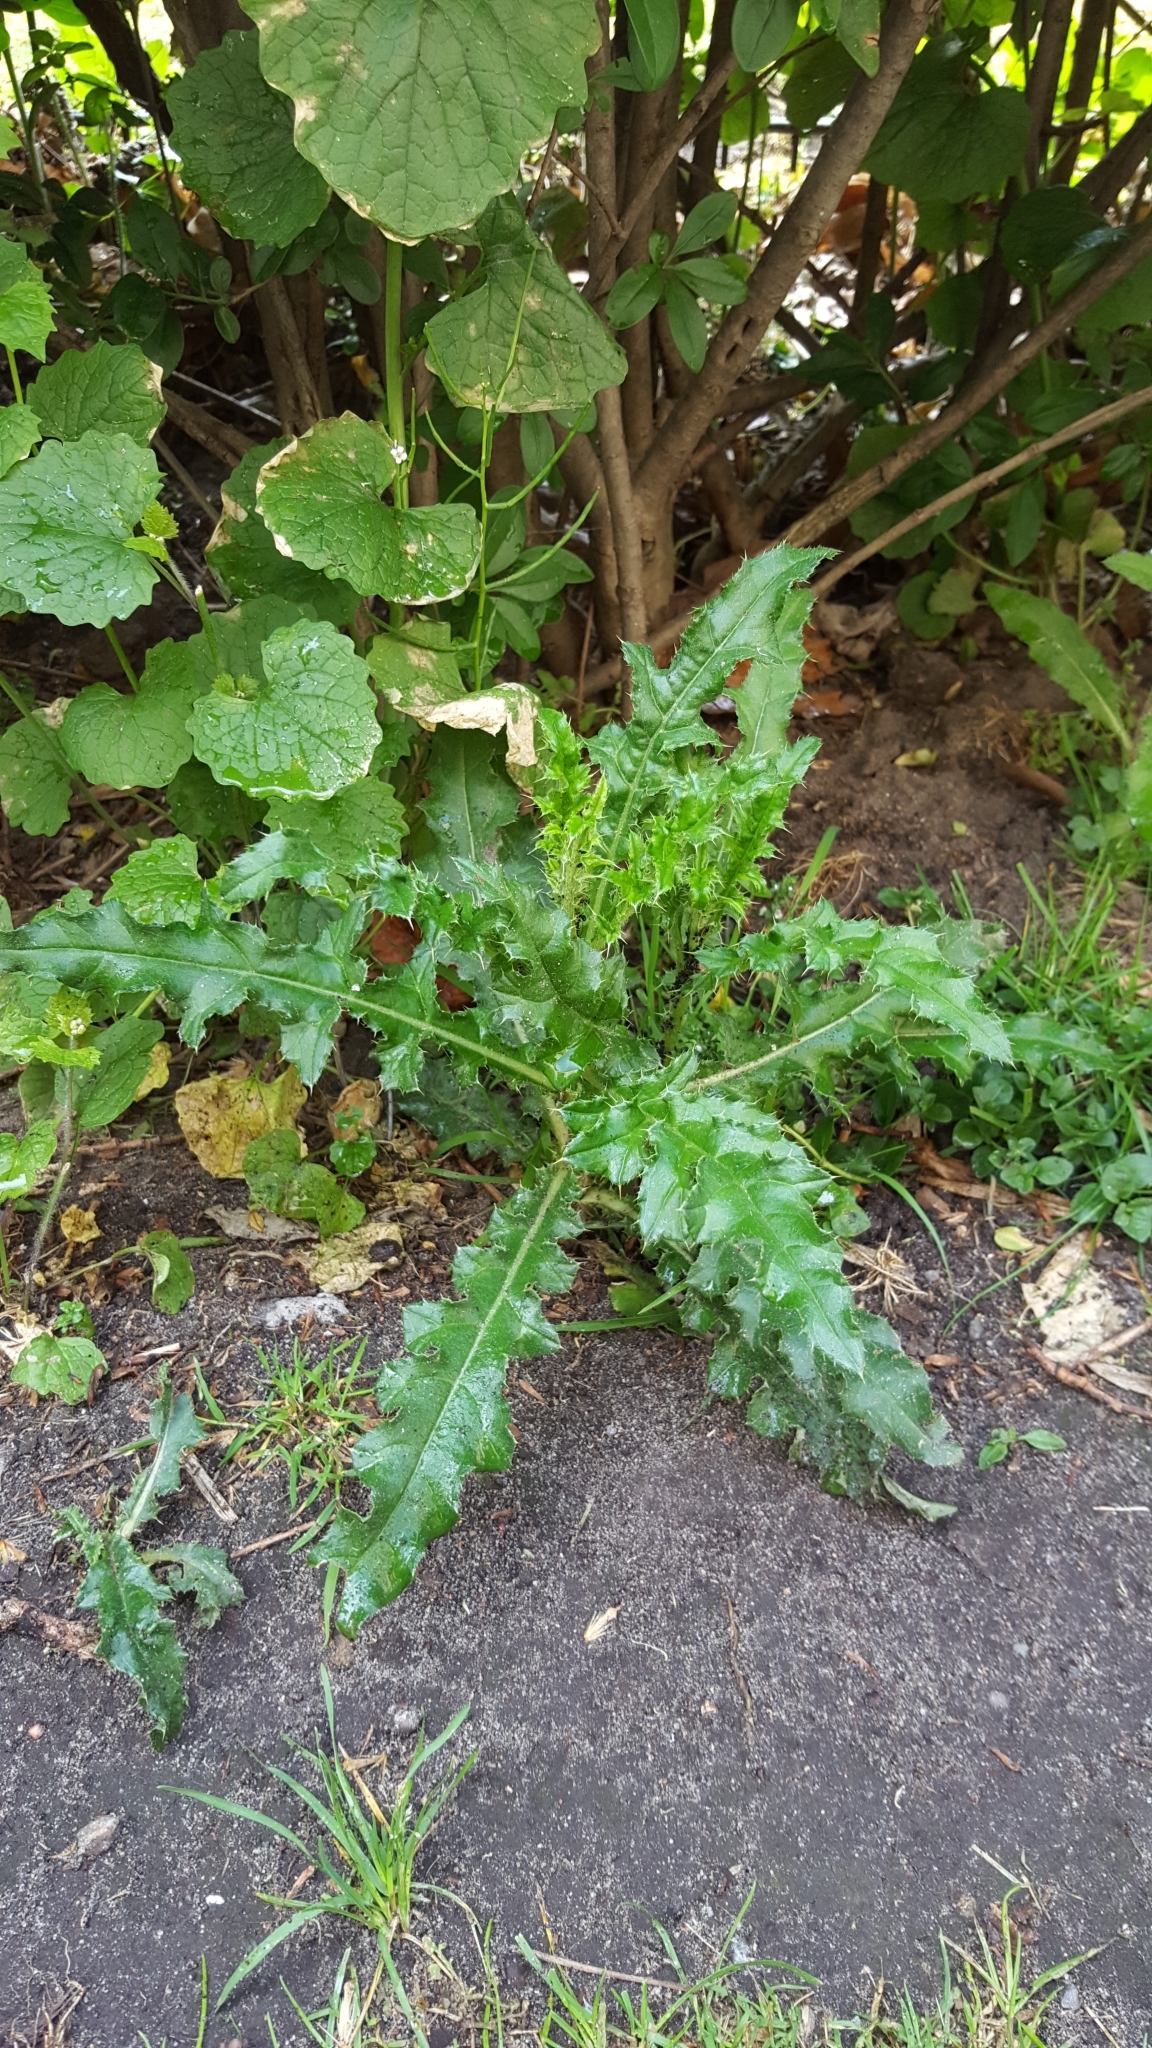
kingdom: Plantae
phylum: Tracheophyta
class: Magnoliopsida
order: Brassicales
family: Brassicaceae
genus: Alliaria
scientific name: Alliaria petiolata
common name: Garlic mustard
